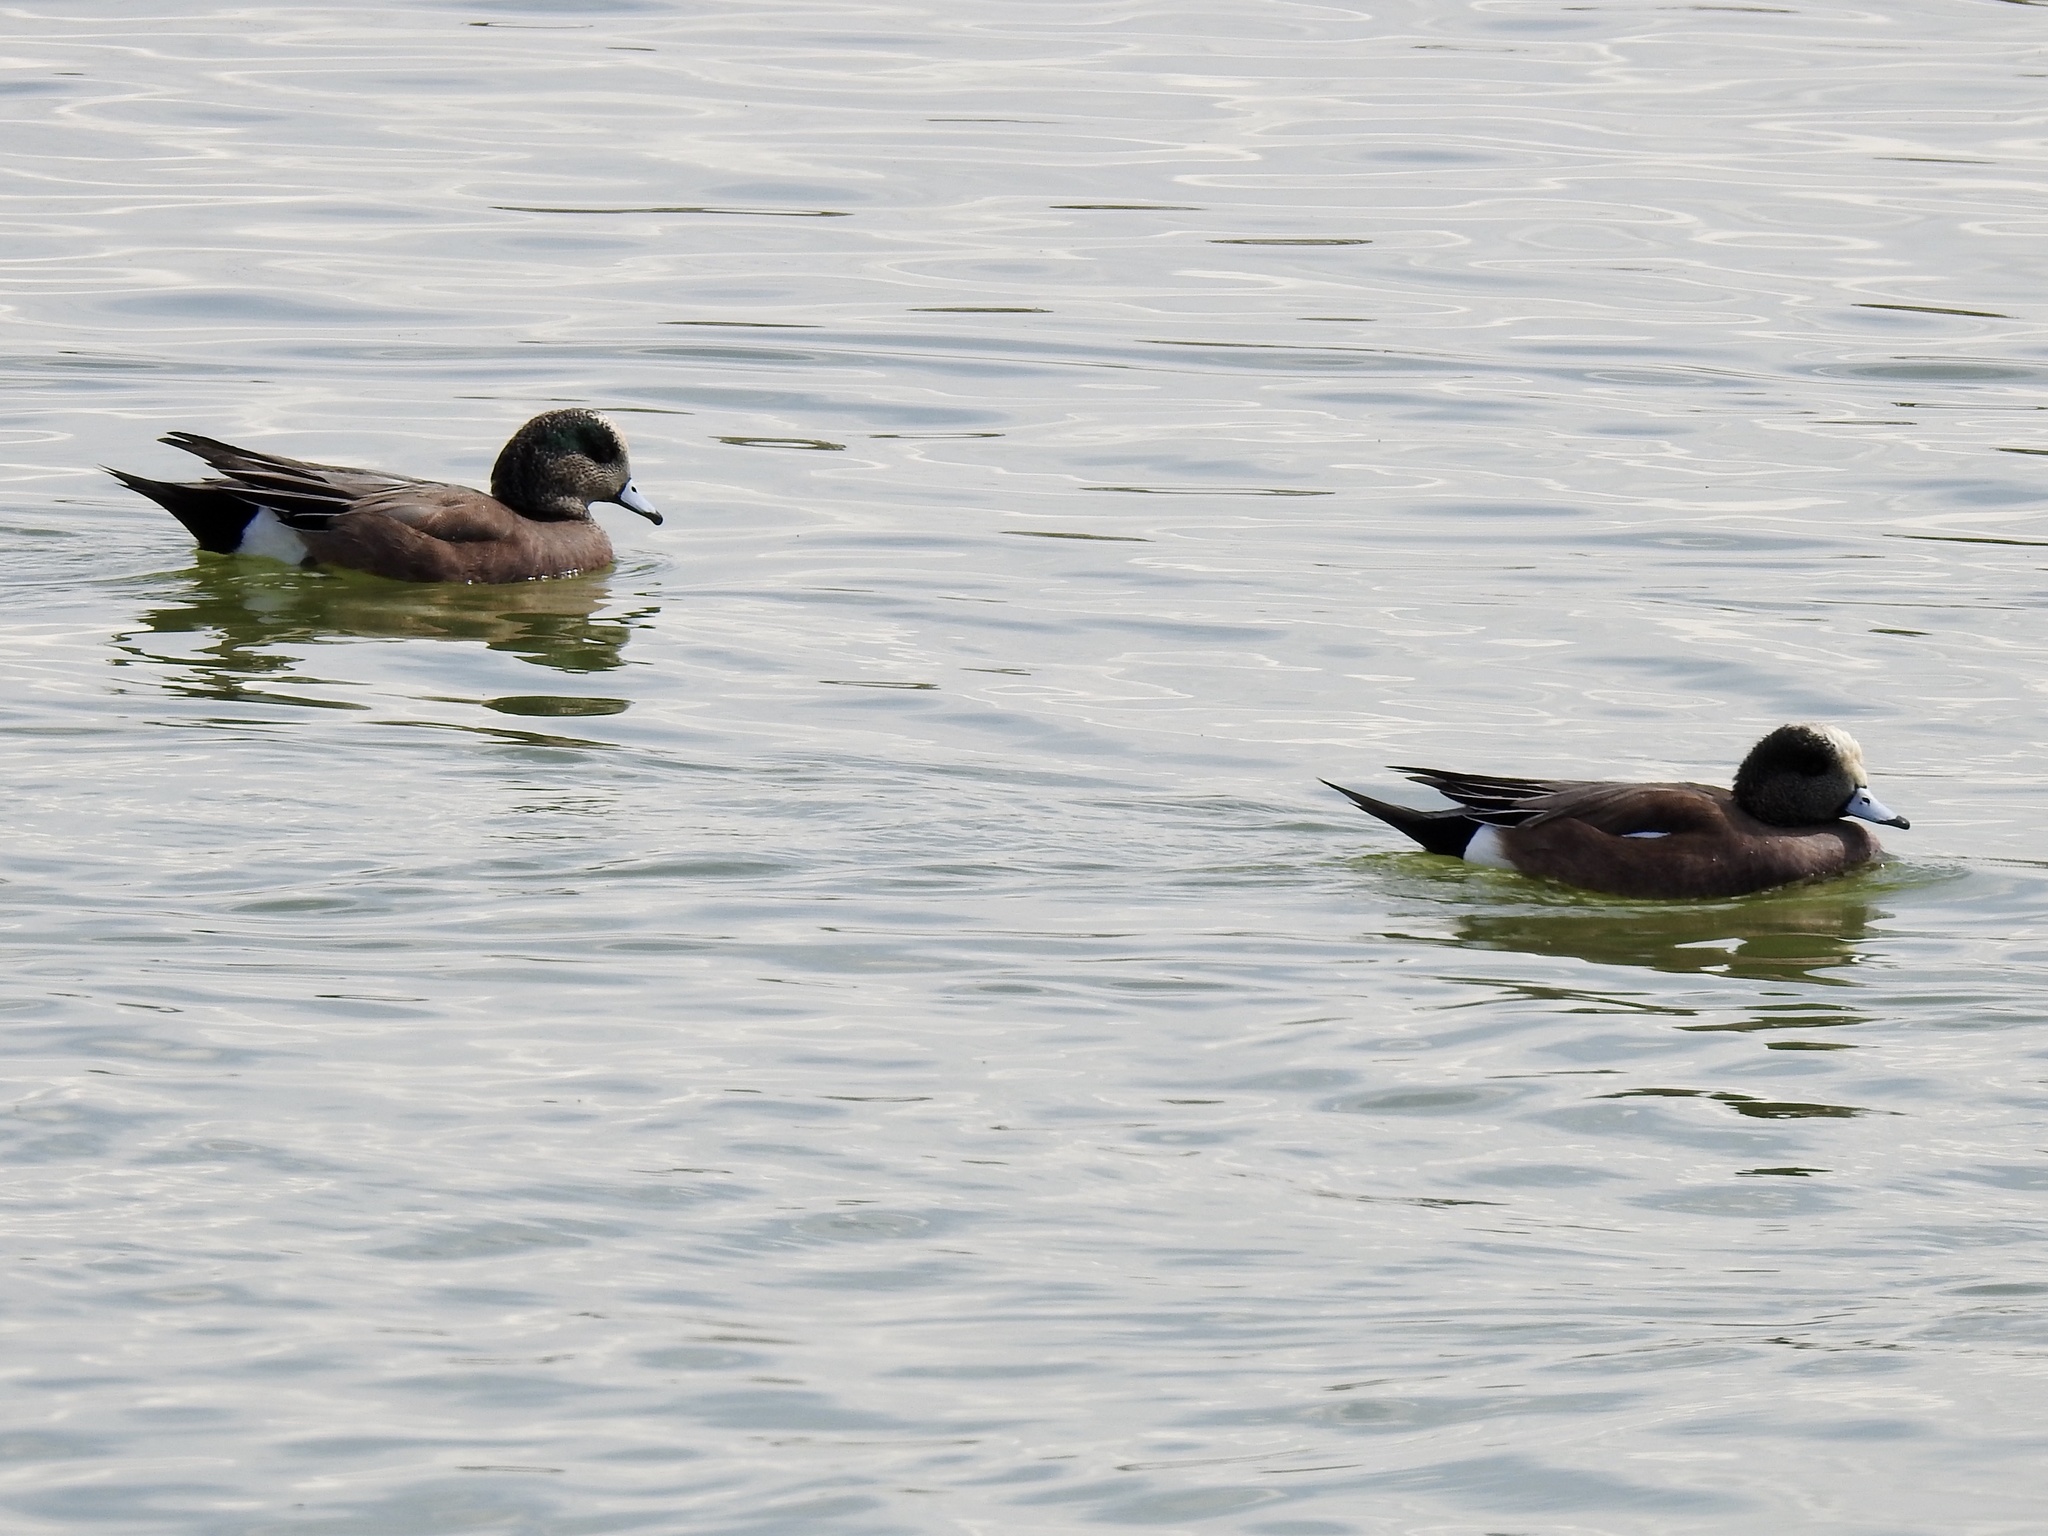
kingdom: Animalia
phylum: Chordata
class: Aves
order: Anseriformes
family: Anatidae
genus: Mareca
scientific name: Mareca americana
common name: American wigeon
